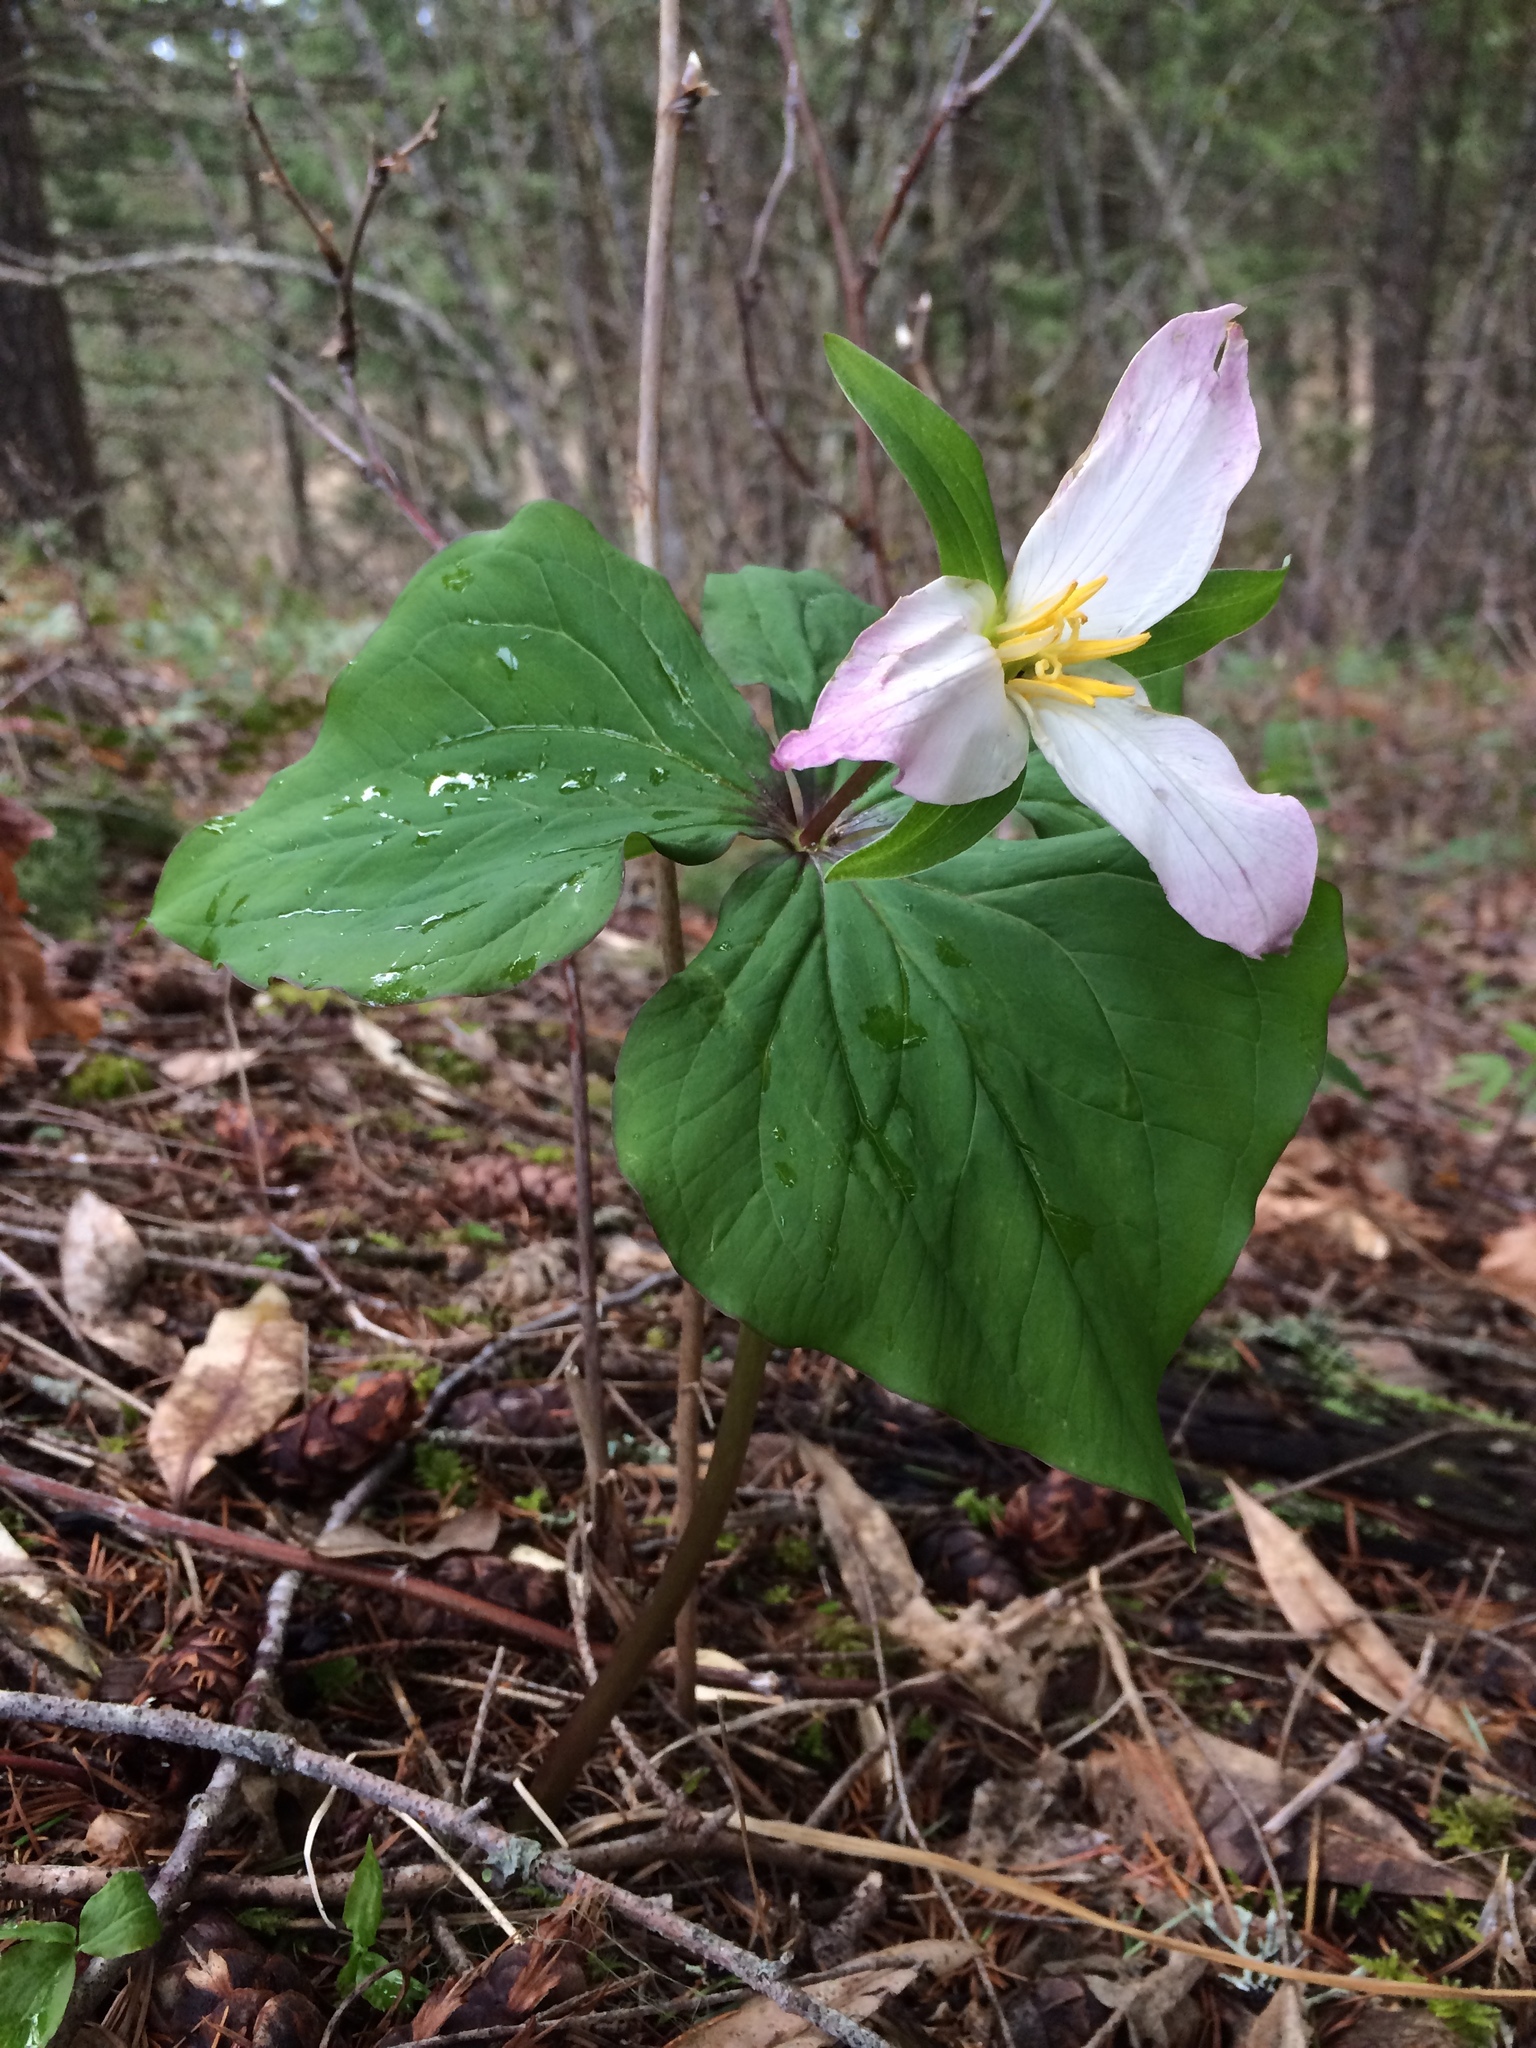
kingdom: Plantae
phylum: Tracheophyta
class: Liliopsida
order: Liliales
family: Melanthiaceae
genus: Trillium
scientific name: Trillium ovatum
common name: Pacific trillium
